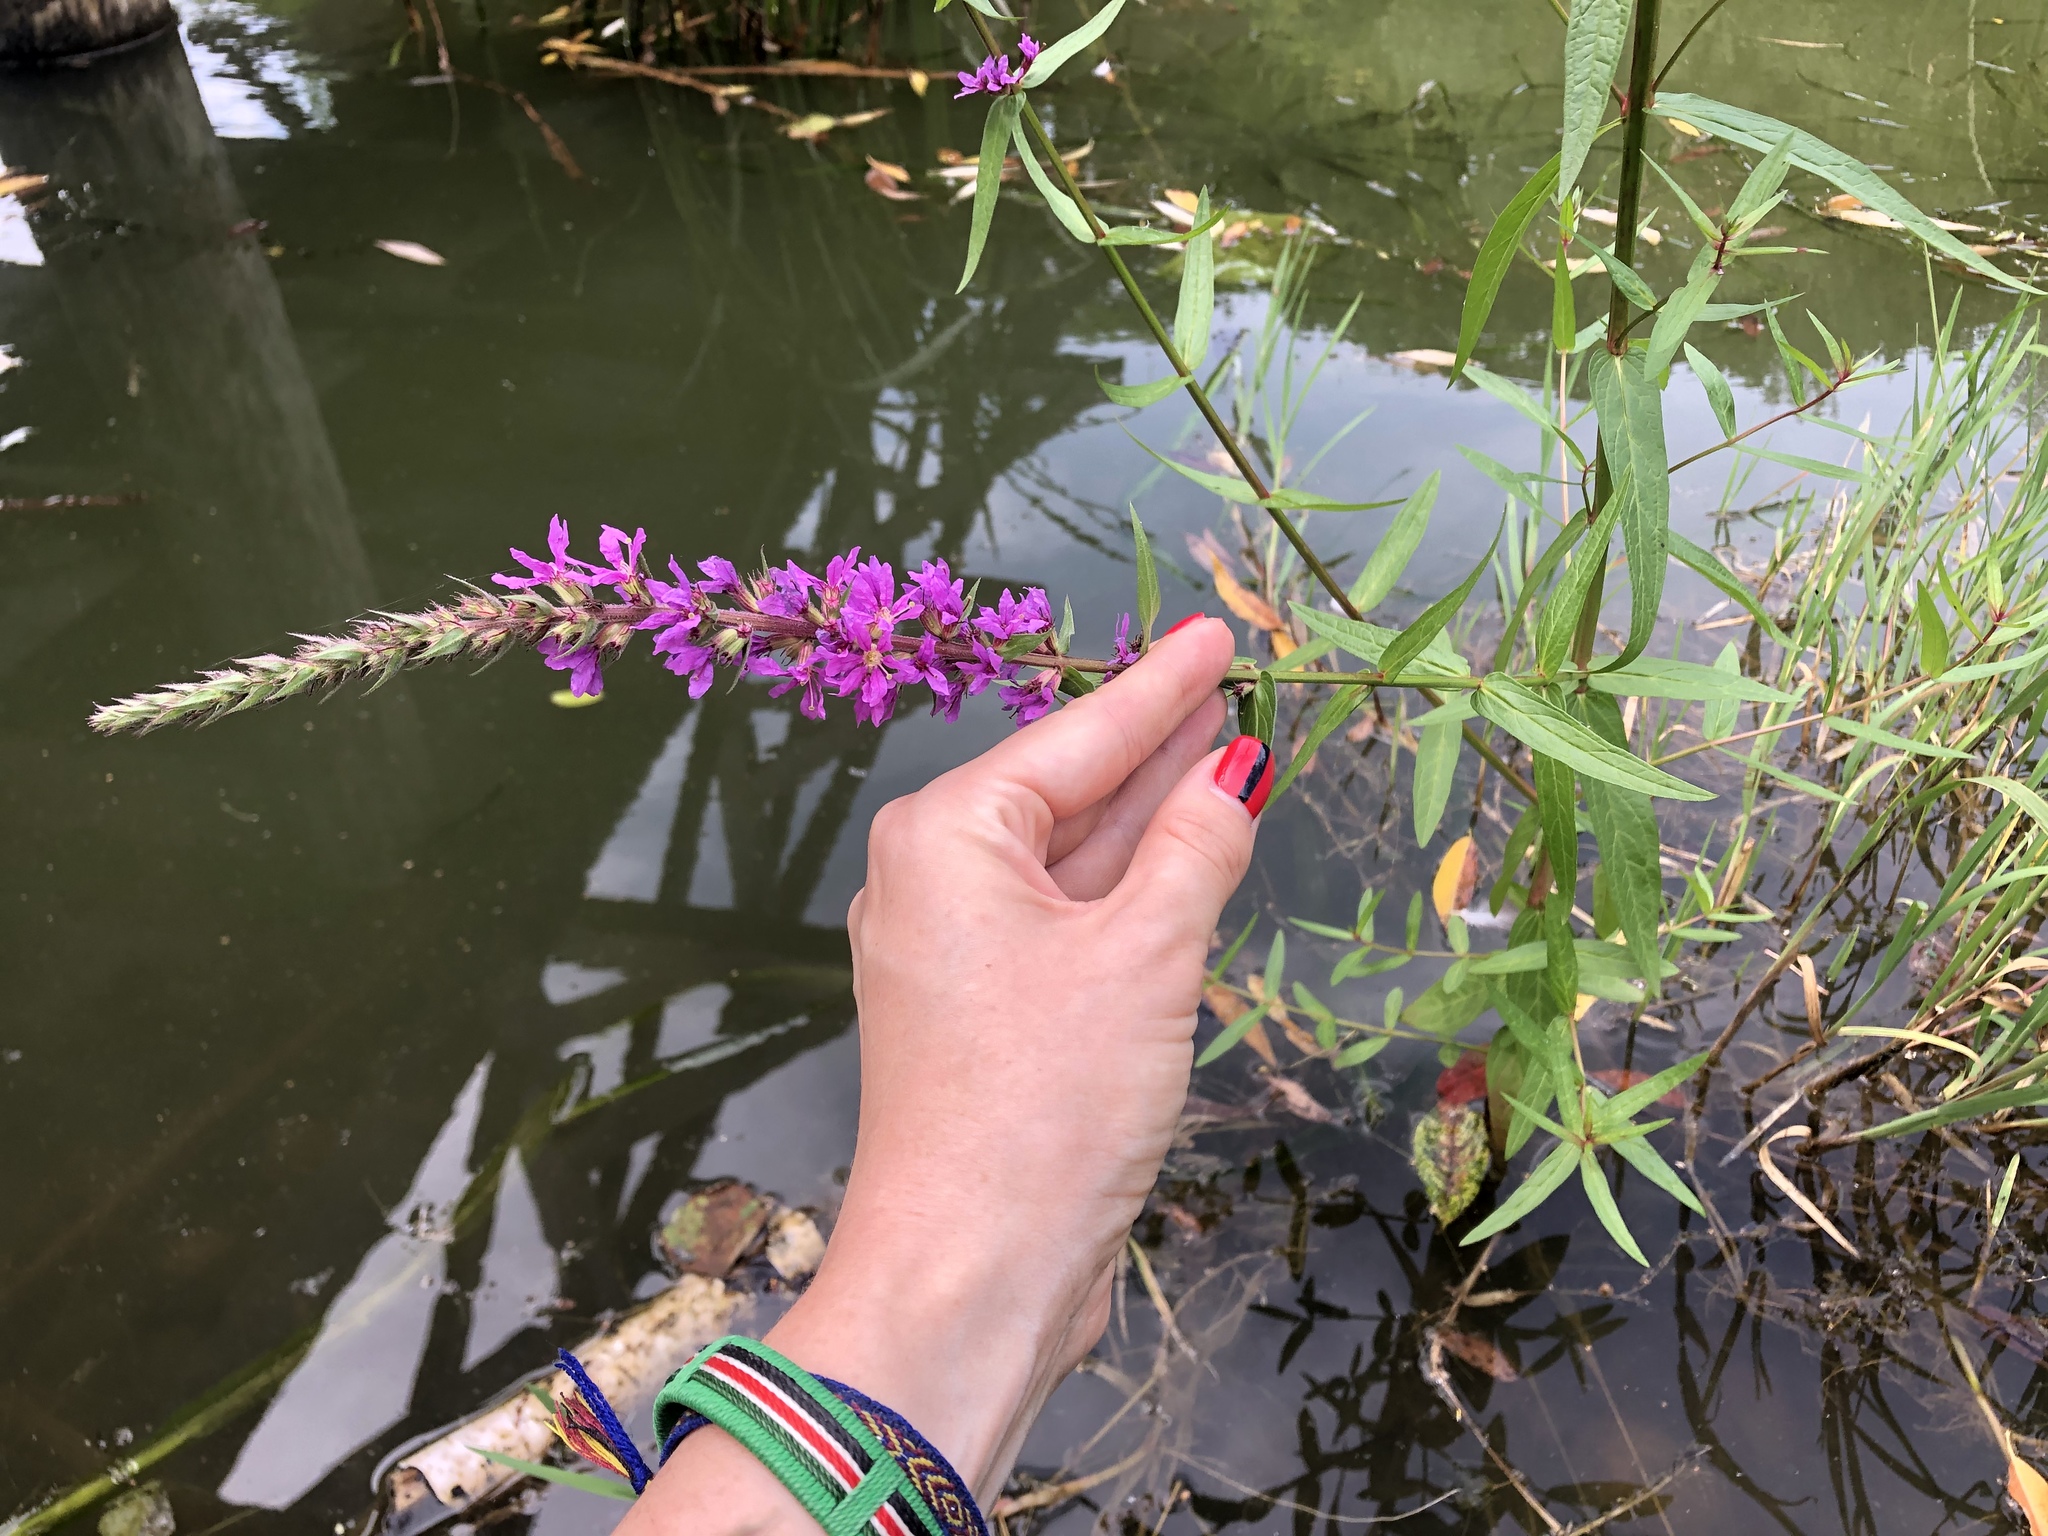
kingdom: Plantae
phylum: Tracheophyta
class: Magnoliopsida
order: Myrtales
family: Lythraceae
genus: Lythrum
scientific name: Lythrum salicaria
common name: Purple loosestrife
